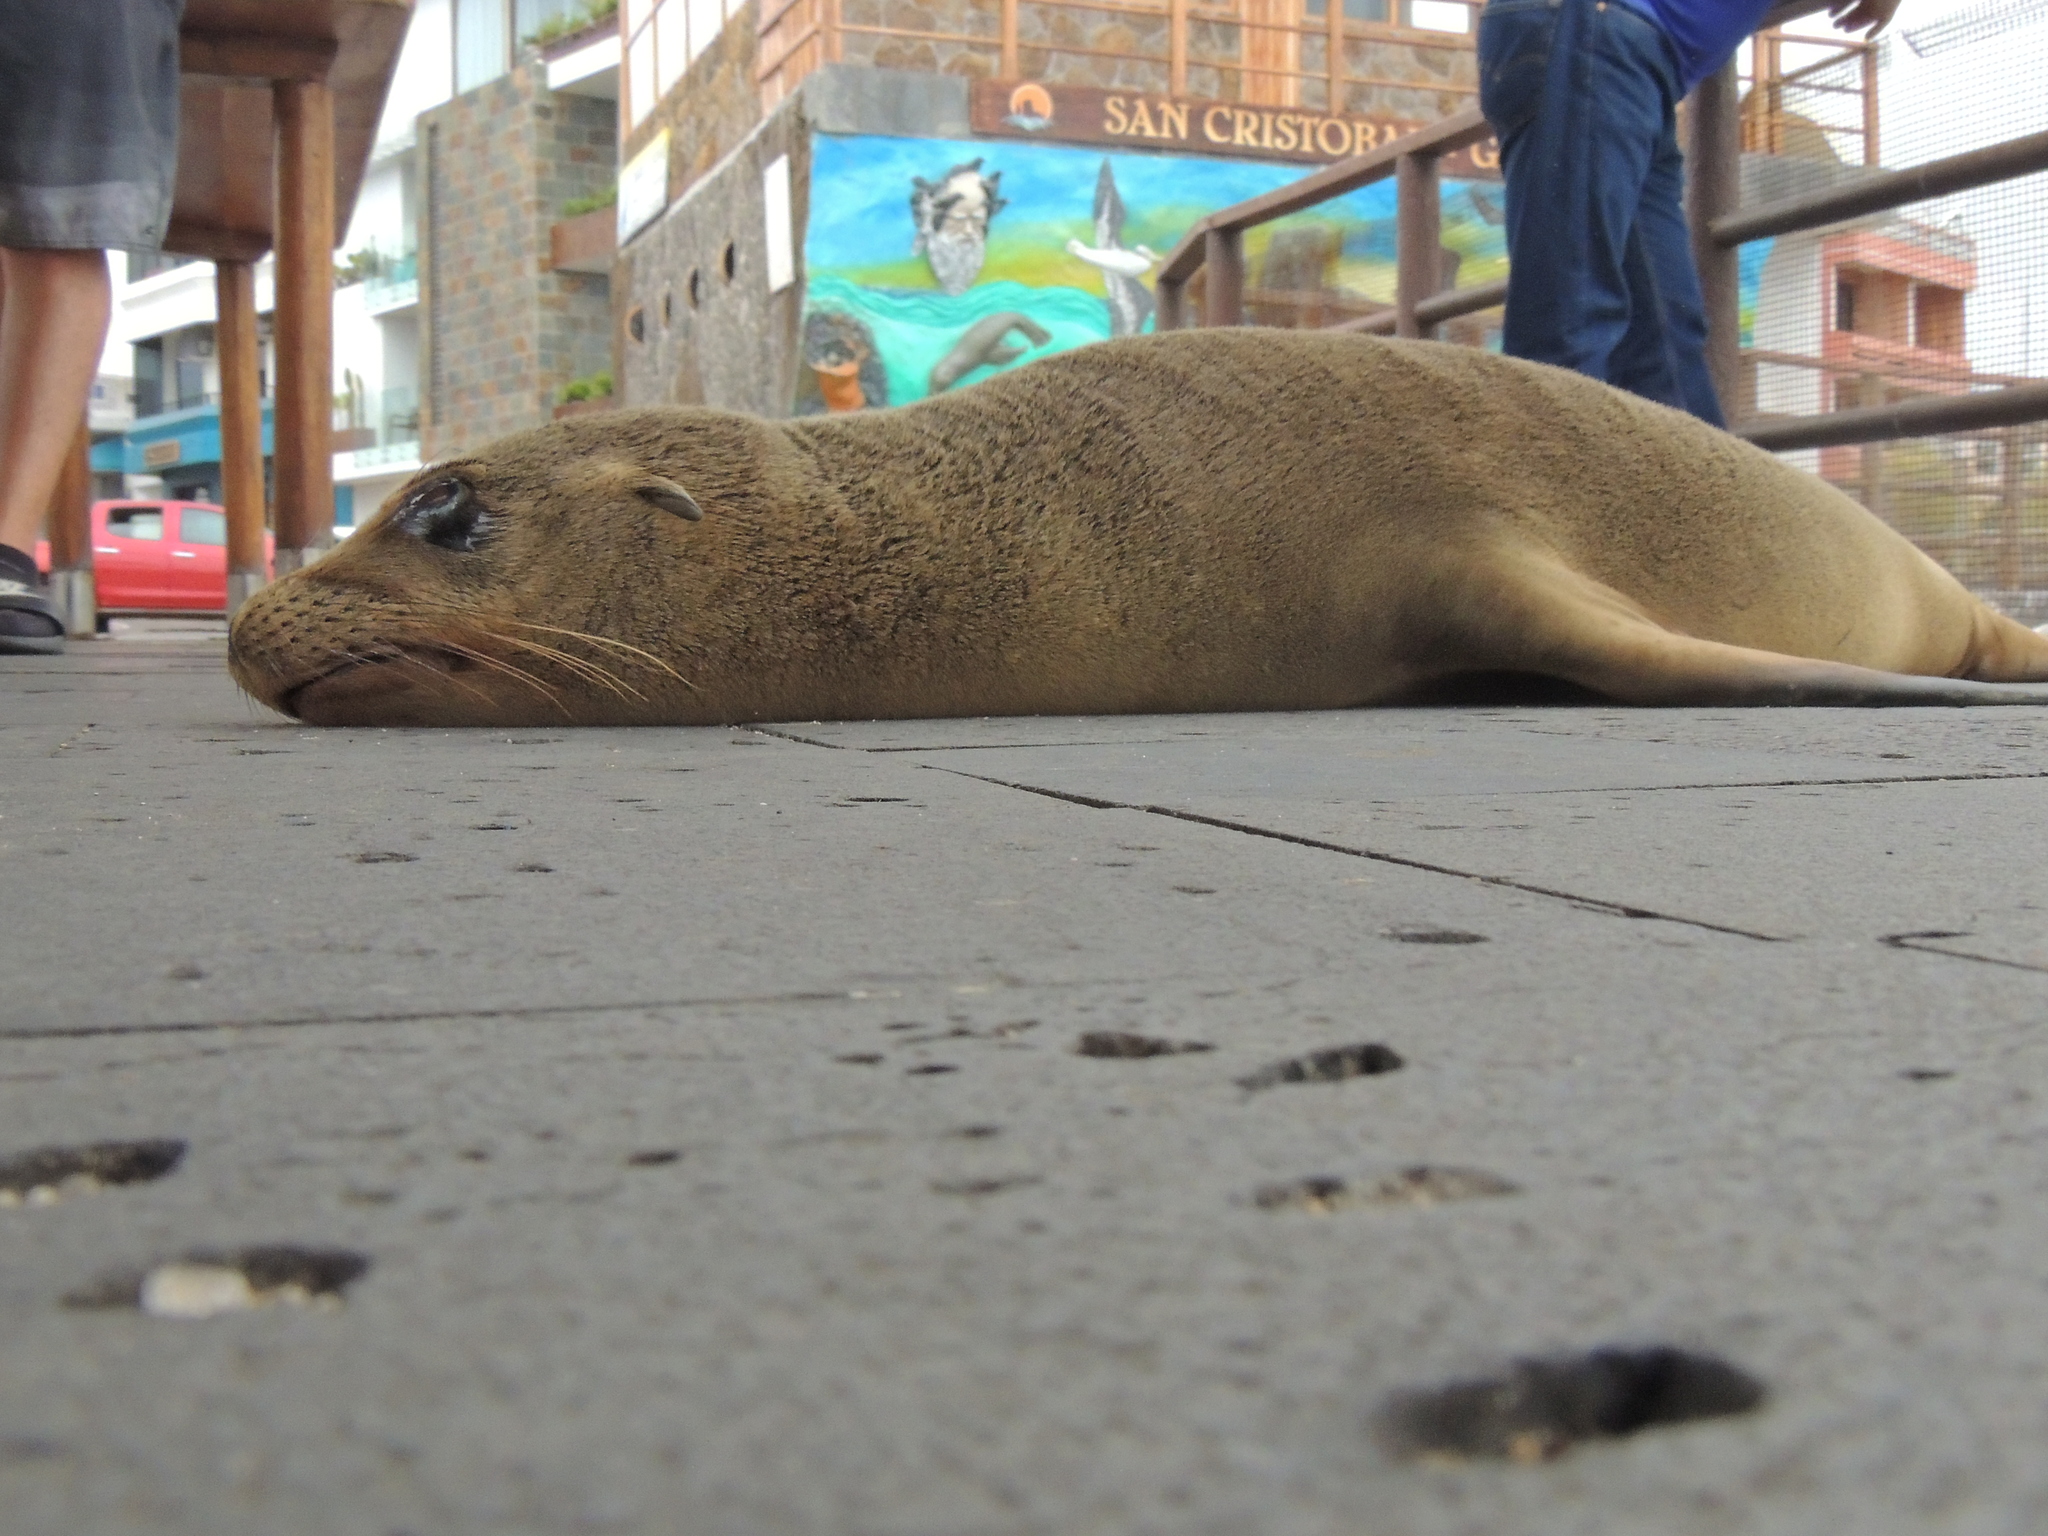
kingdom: Animalia
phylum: Chordata
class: Mammalia
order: Carnivora
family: Otariidae
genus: Zalophus
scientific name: Zalophus wollebaeki
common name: Galapagos sea lion
